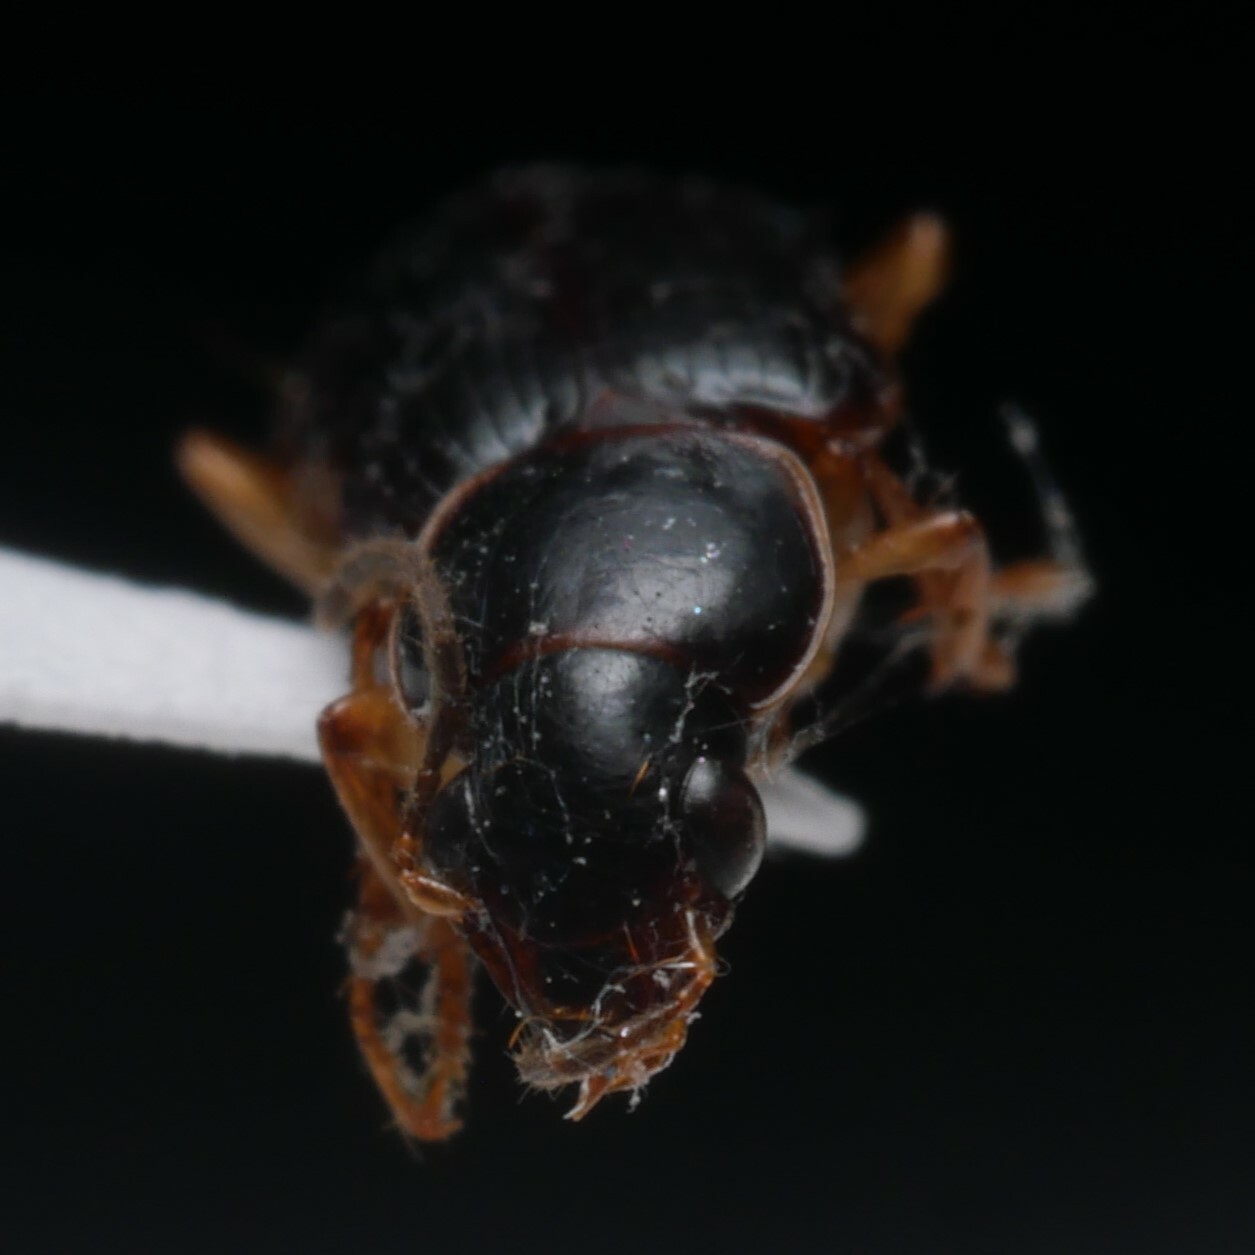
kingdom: Animalia
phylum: Arthropoda
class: Insecta
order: Coleoptera
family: Carabidae
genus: Stenolophus
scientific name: Stenolophus ochropezus
